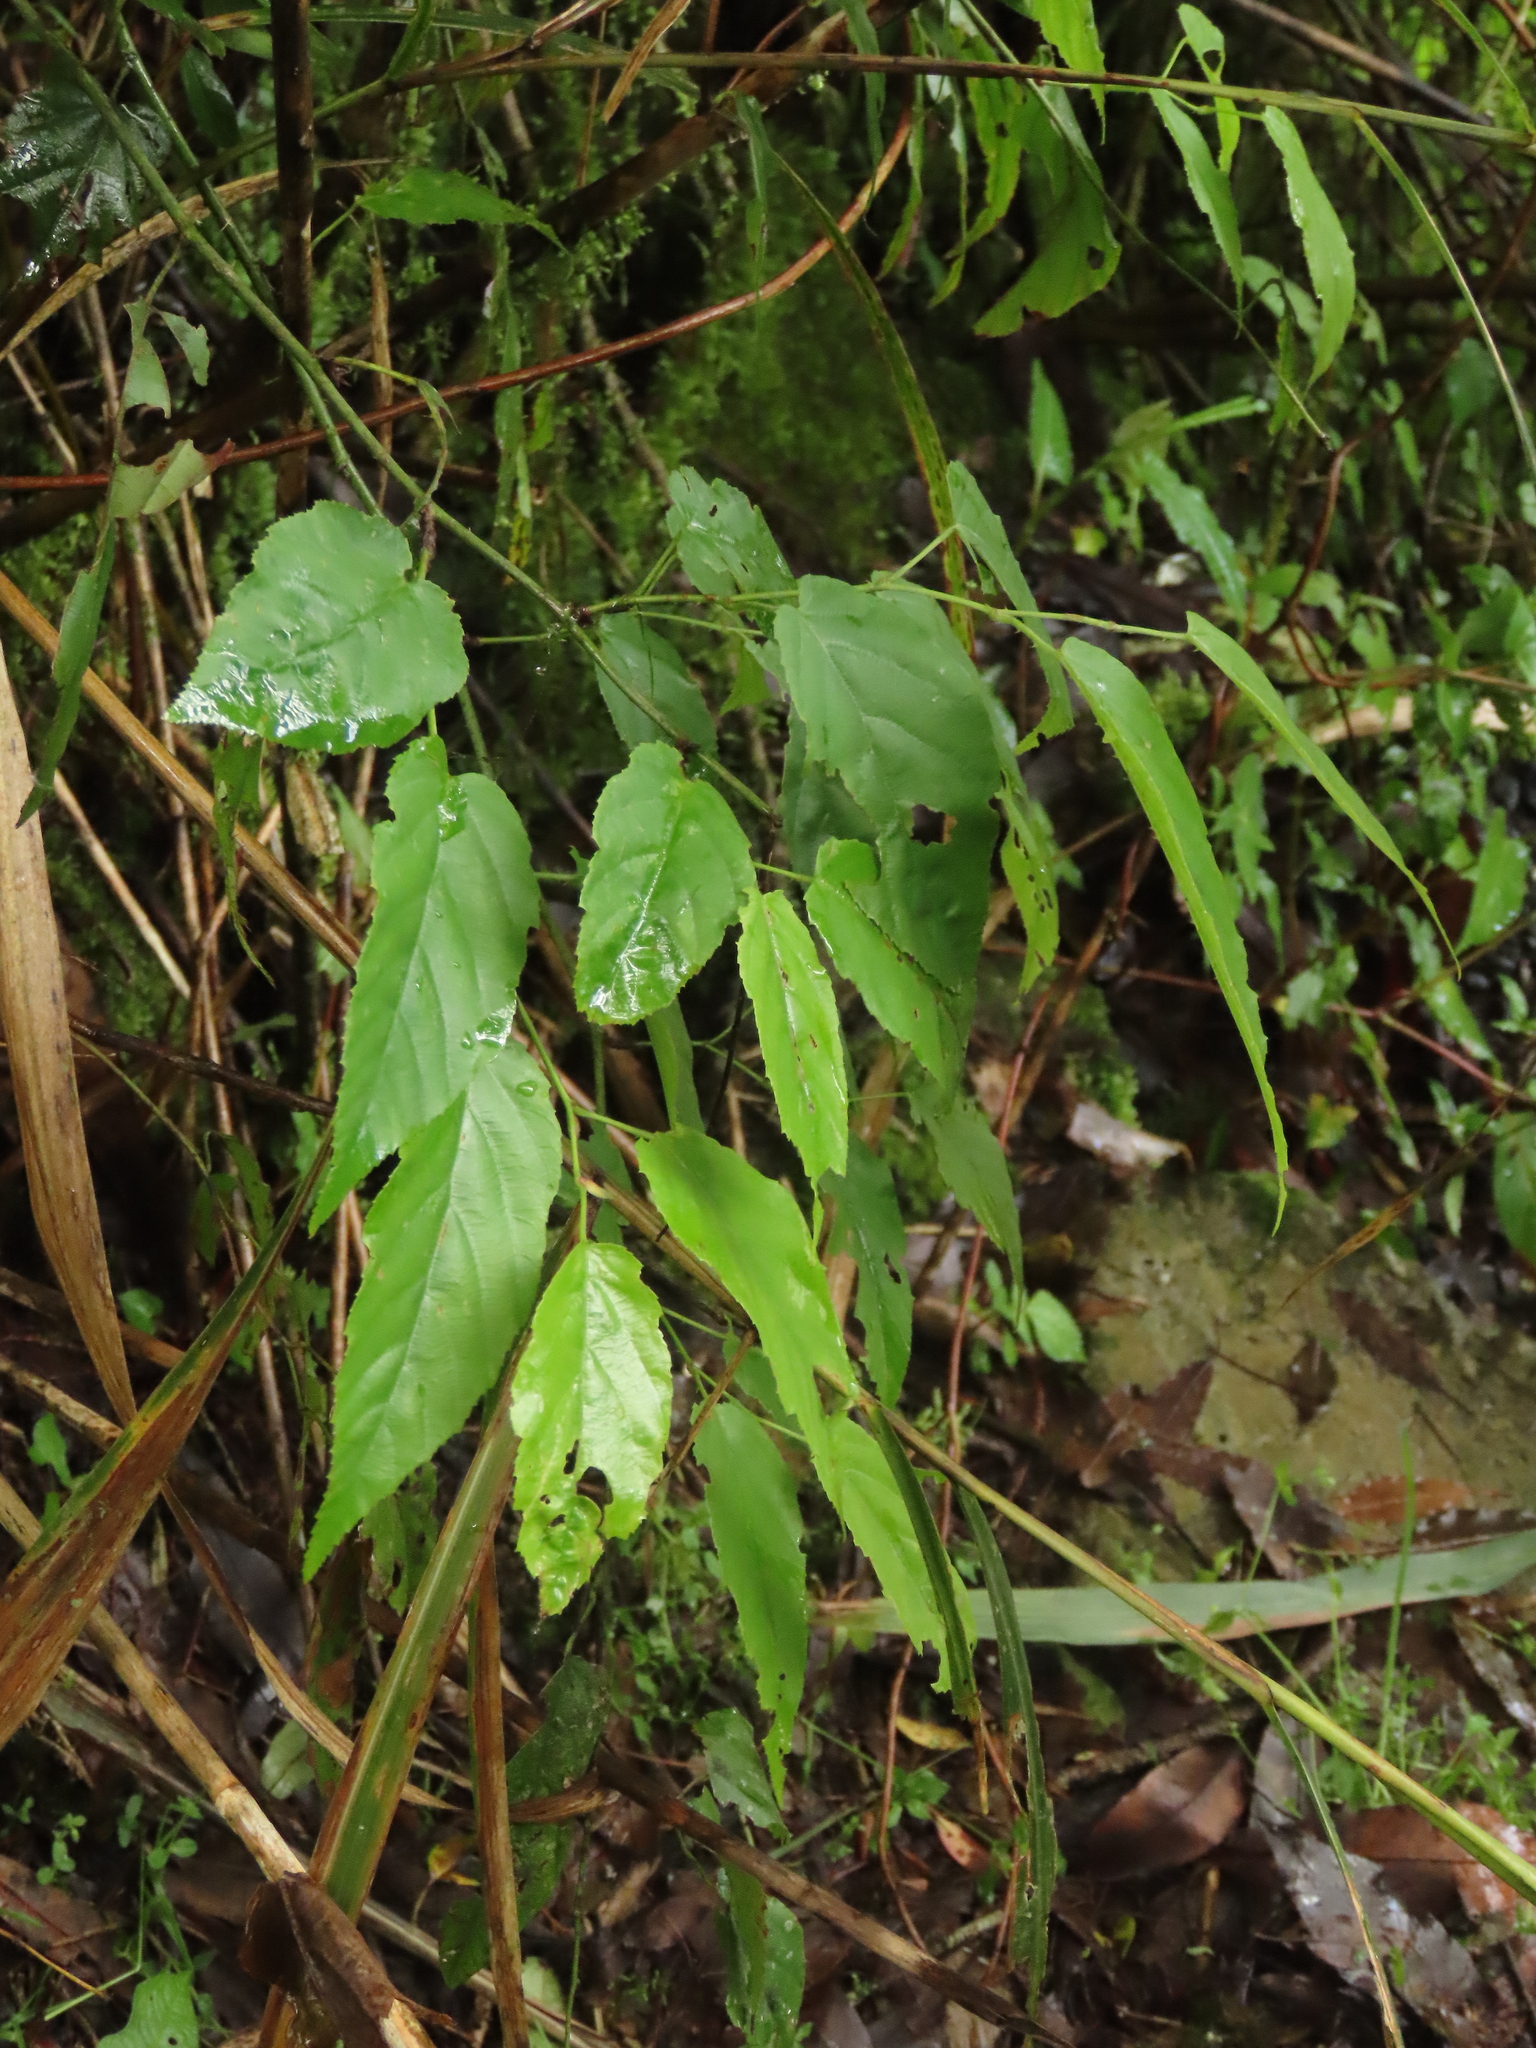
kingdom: Plantae
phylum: Tracheophyta
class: Magnoliopsida
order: Rosales
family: Rosaceae
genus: Rubus
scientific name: Rubus kawakamii
